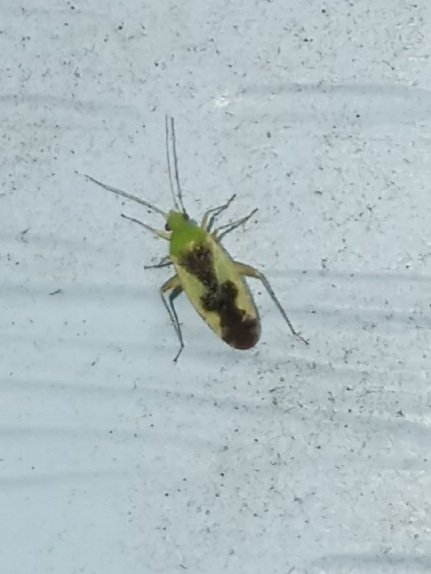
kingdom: Animalia
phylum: Arthropoda
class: Insecta
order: Hemiptera
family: Miridae
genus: Reuteroscopus
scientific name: Reuteroscopus ornatus
